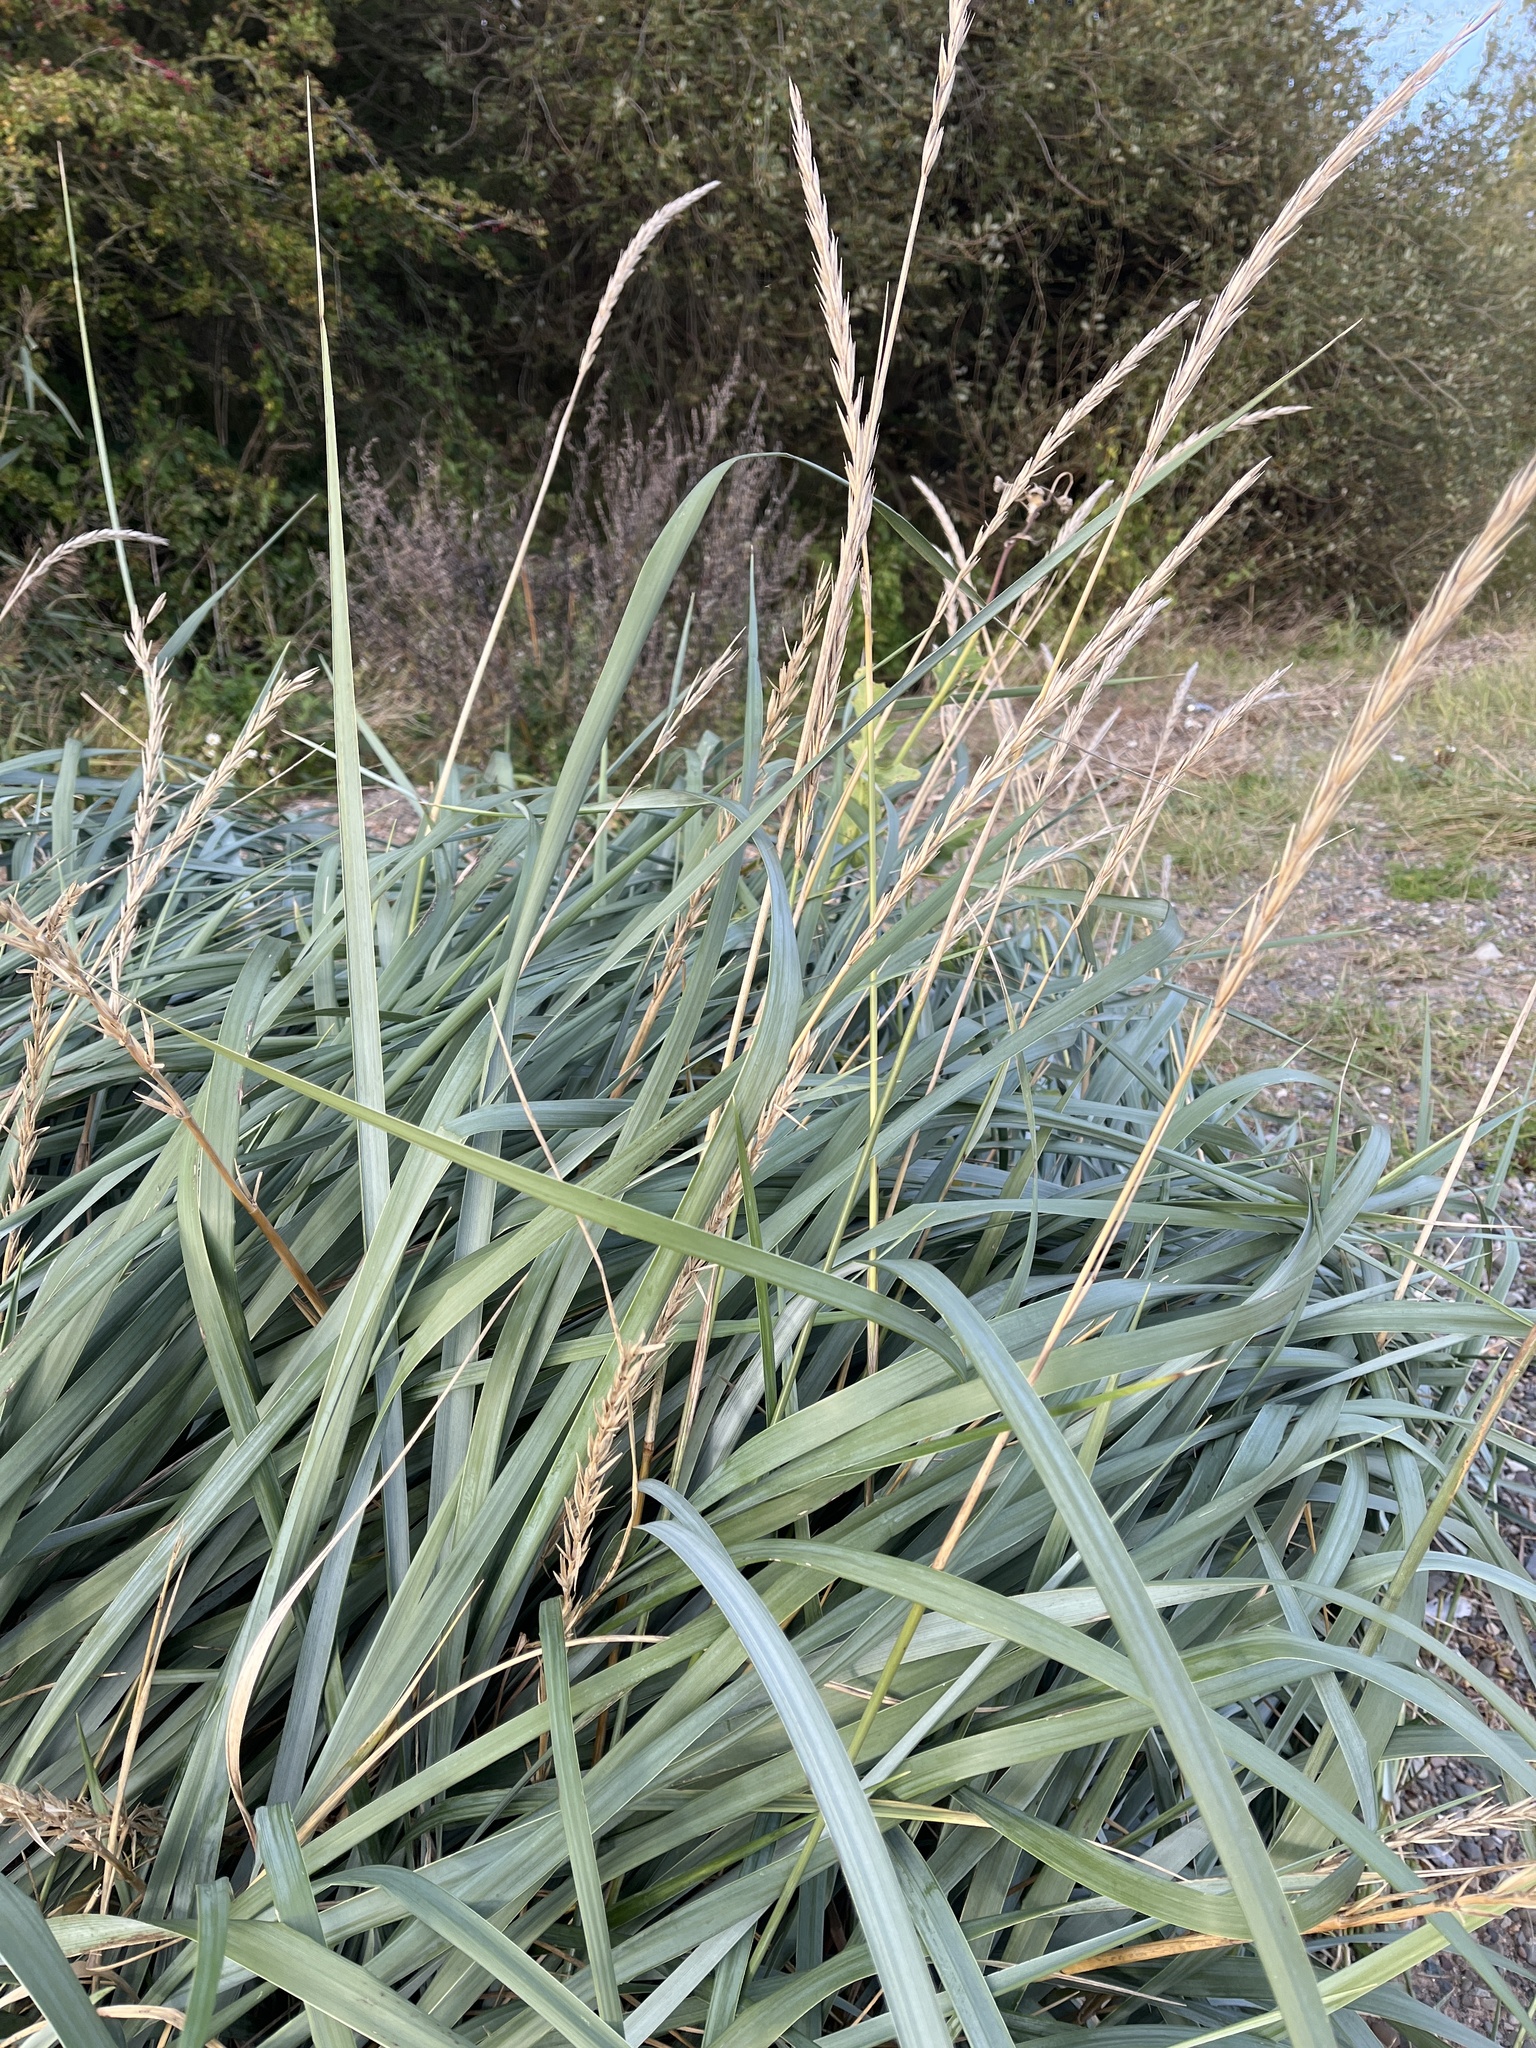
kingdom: Plantae
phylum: Tracheophyta
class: Liliopsida
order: Poales
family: Poaceae
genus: Leymus
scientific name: Leymus arenarius
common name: Lyme-grass
